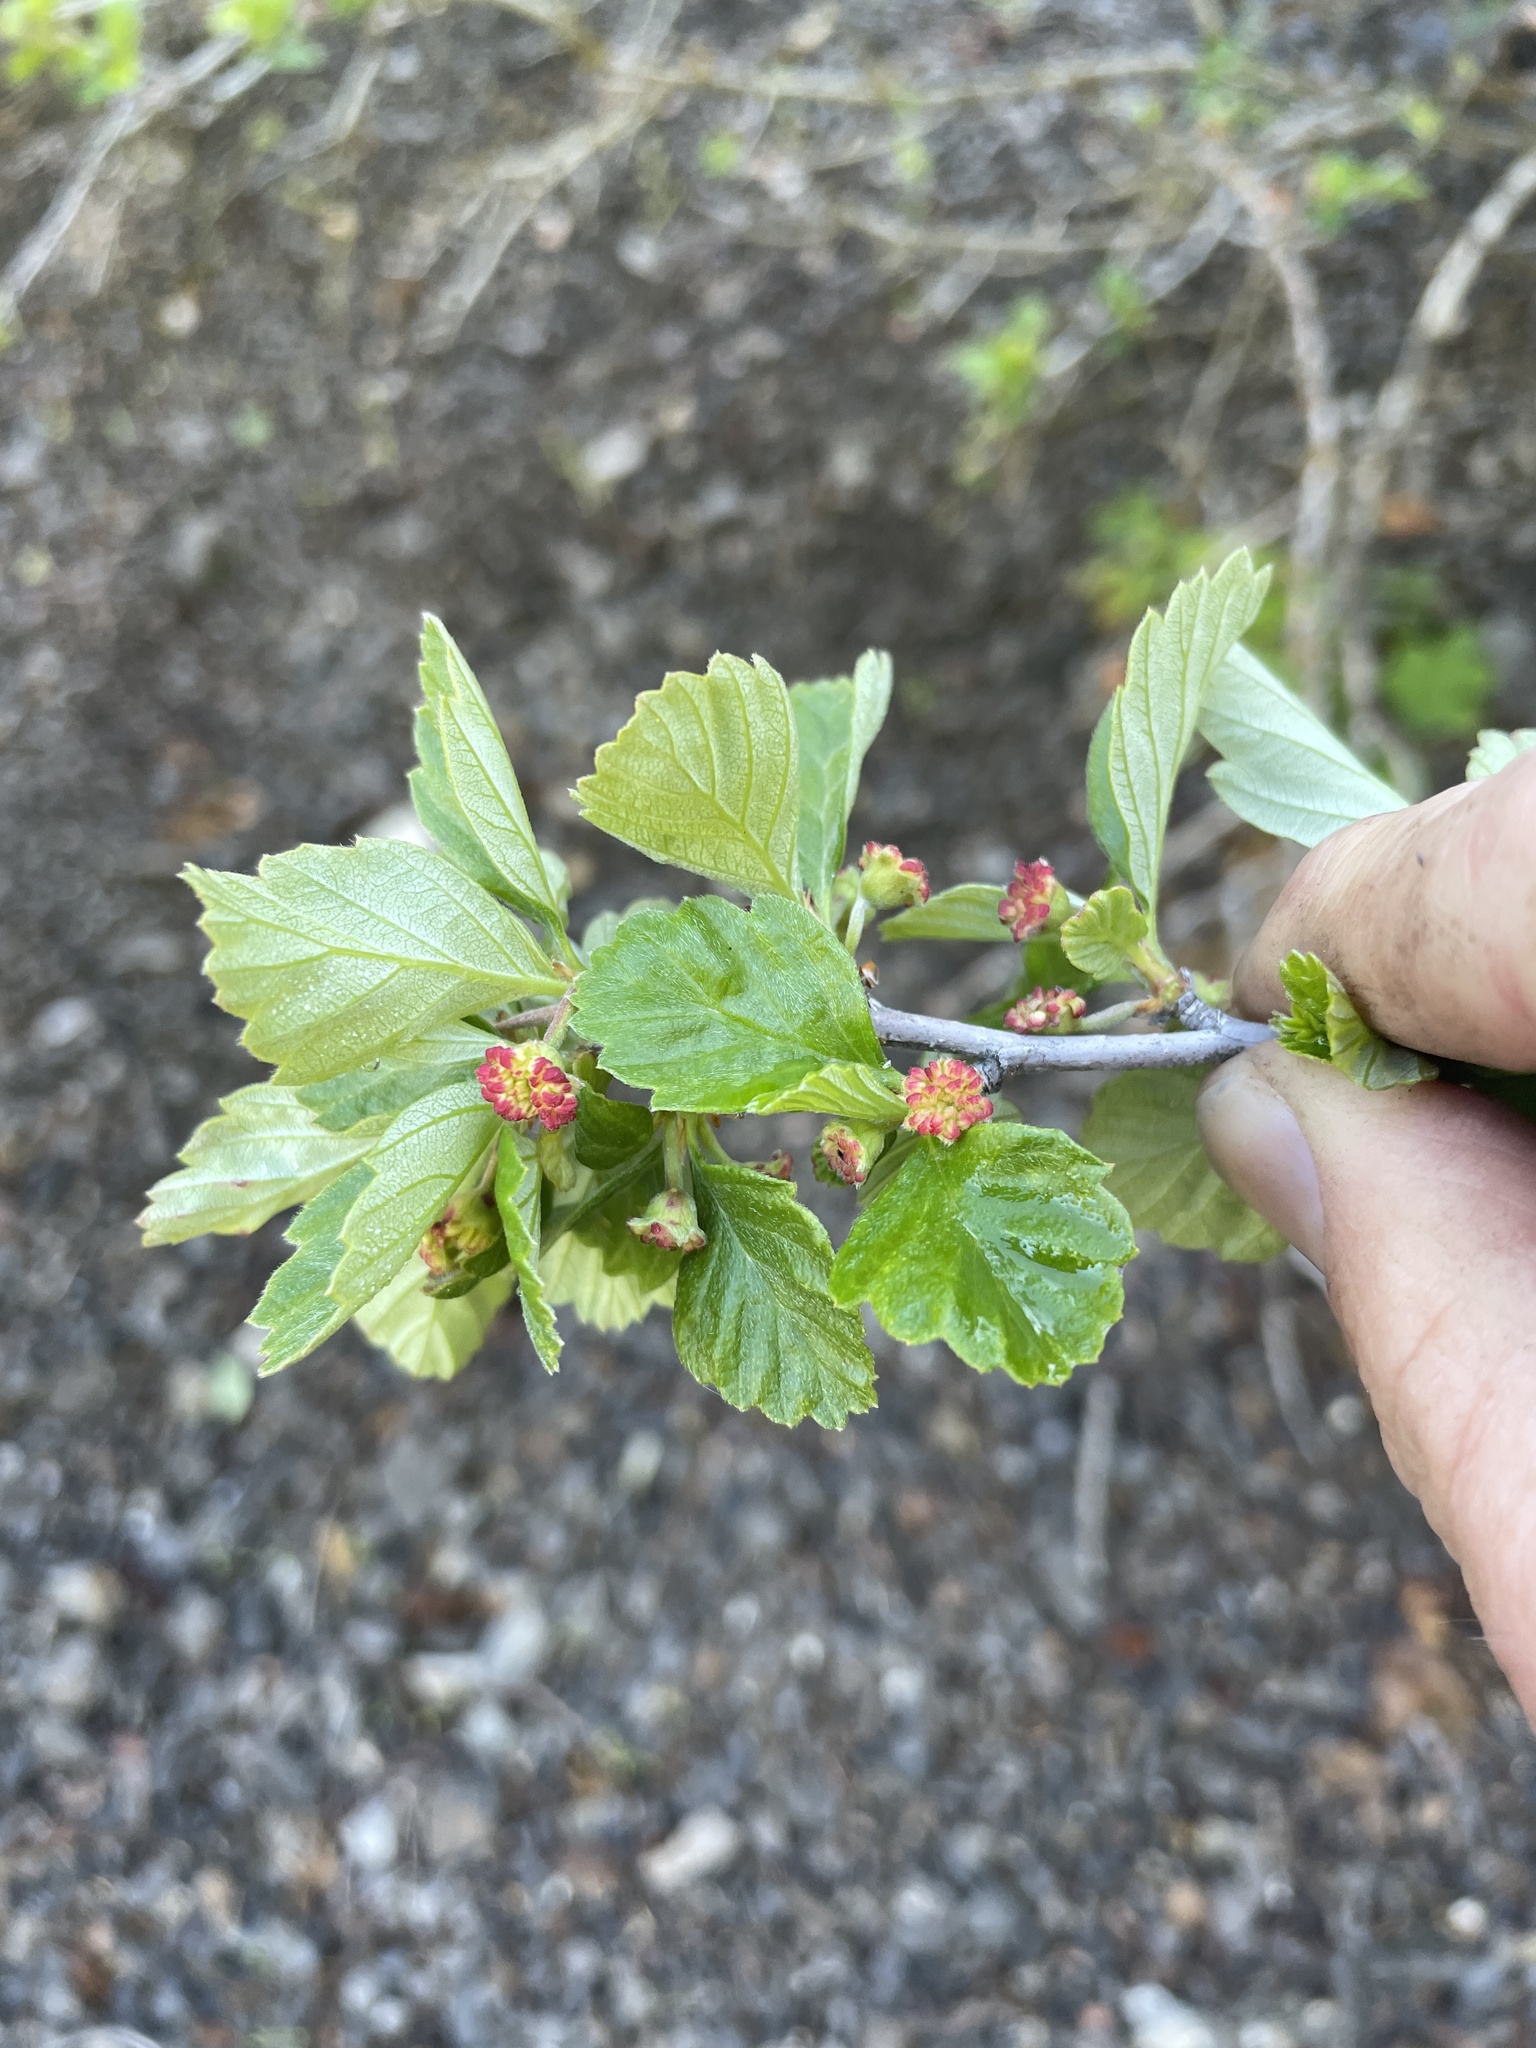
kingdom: Plantae
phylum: Tracheophyta
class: Magnoliopsida
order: Rosales
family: Rosaceae
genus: Cercocarpus
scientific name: Cercocarpus montanus
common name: Alder-leaf cercocarpus
